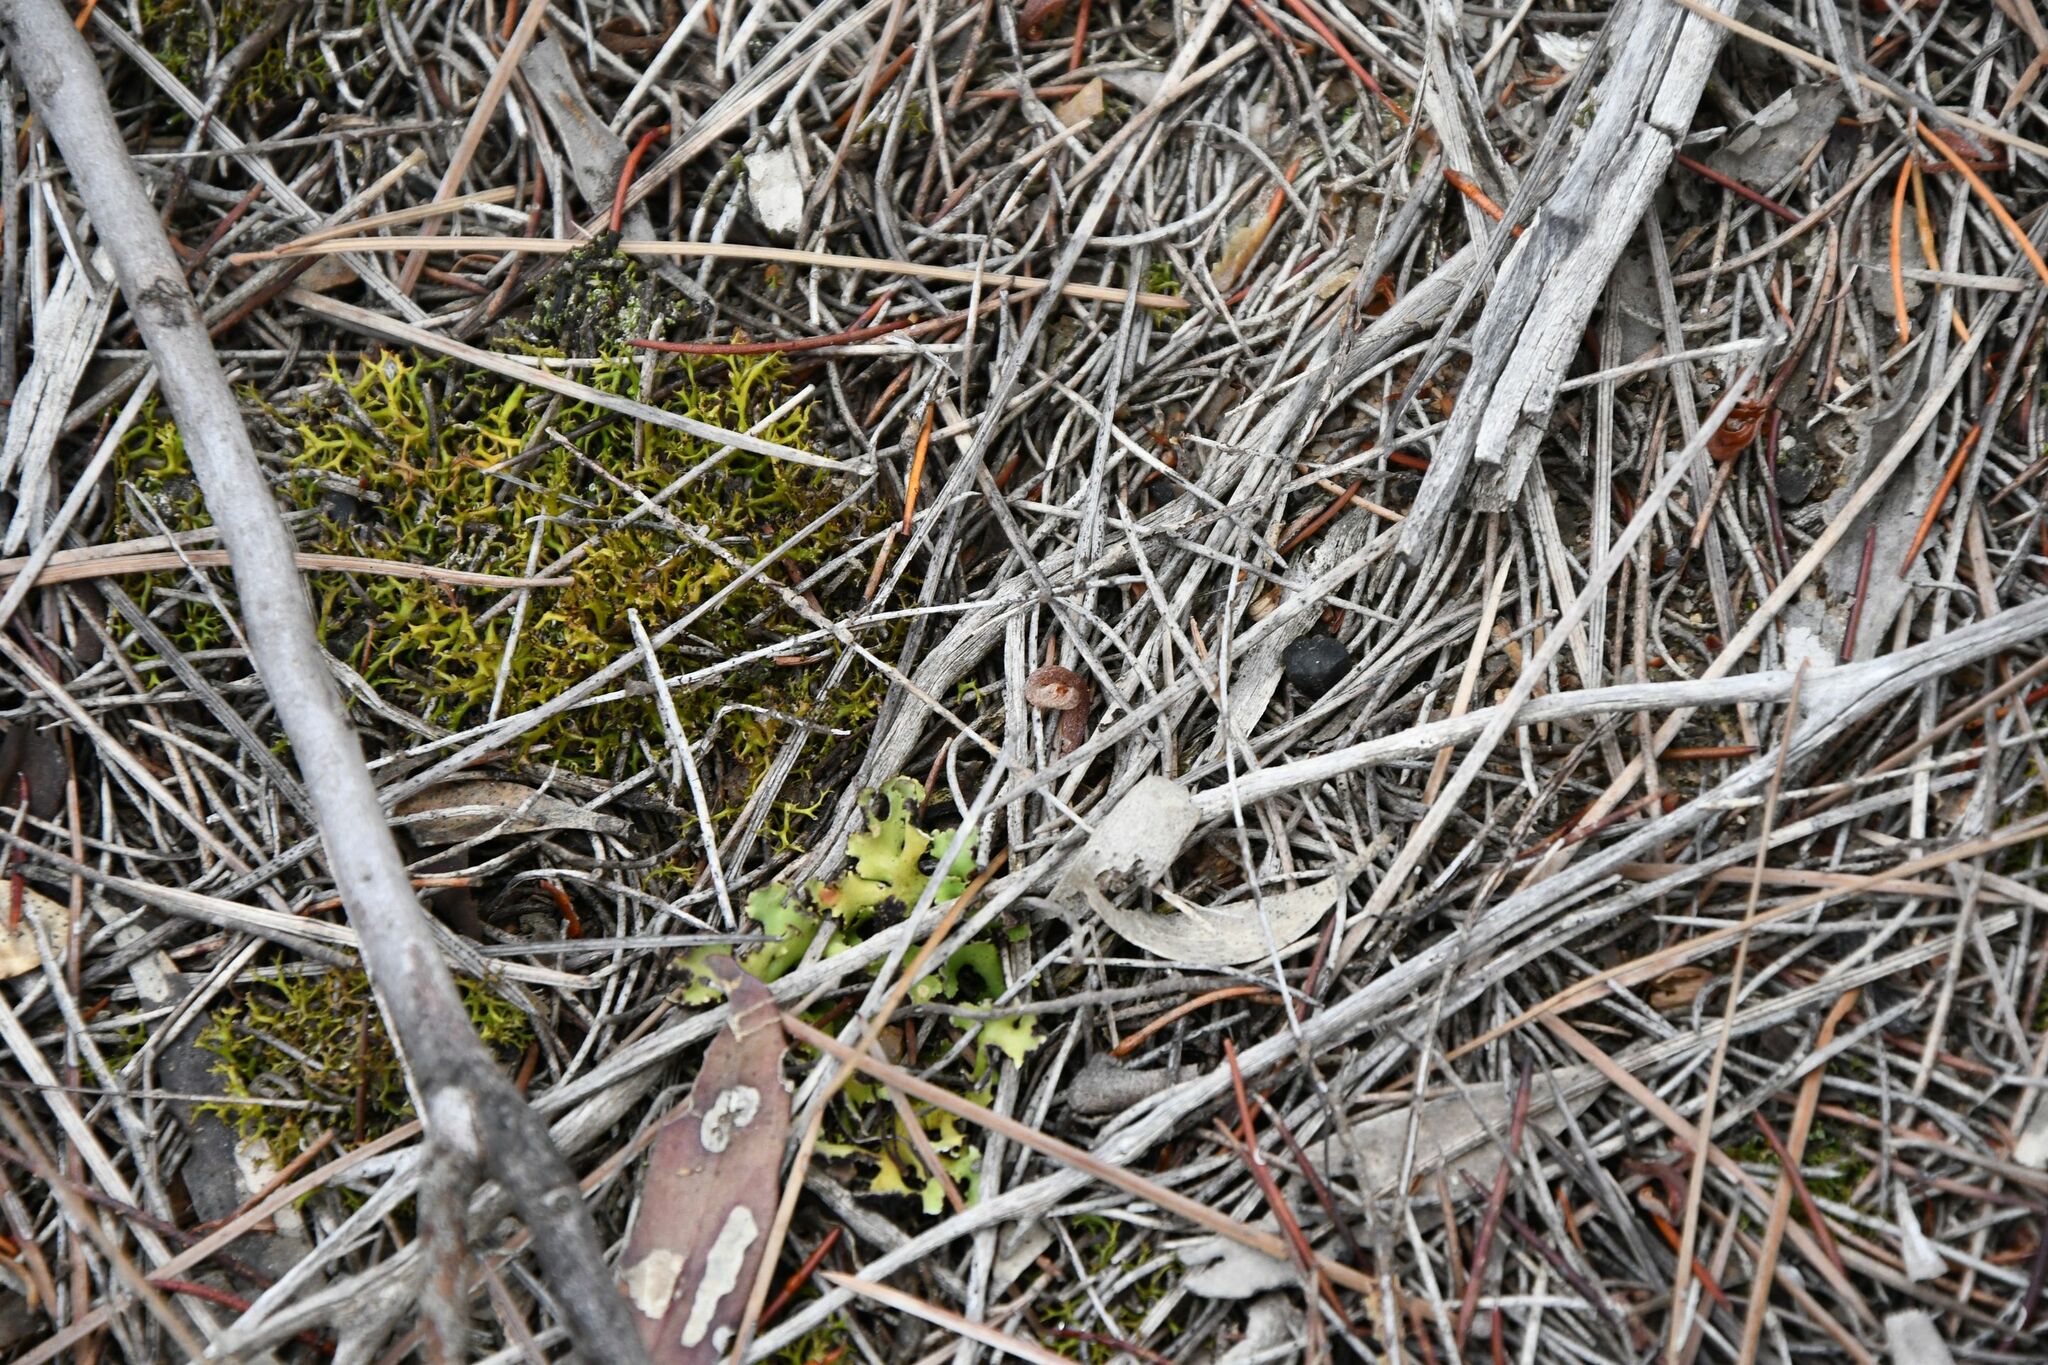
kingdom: Fungi
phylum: Ascomycota
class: Lecanoromycetes
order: Lecanorales
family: Cladoniaceae
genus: Cladia
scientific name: Cladia aggregata
